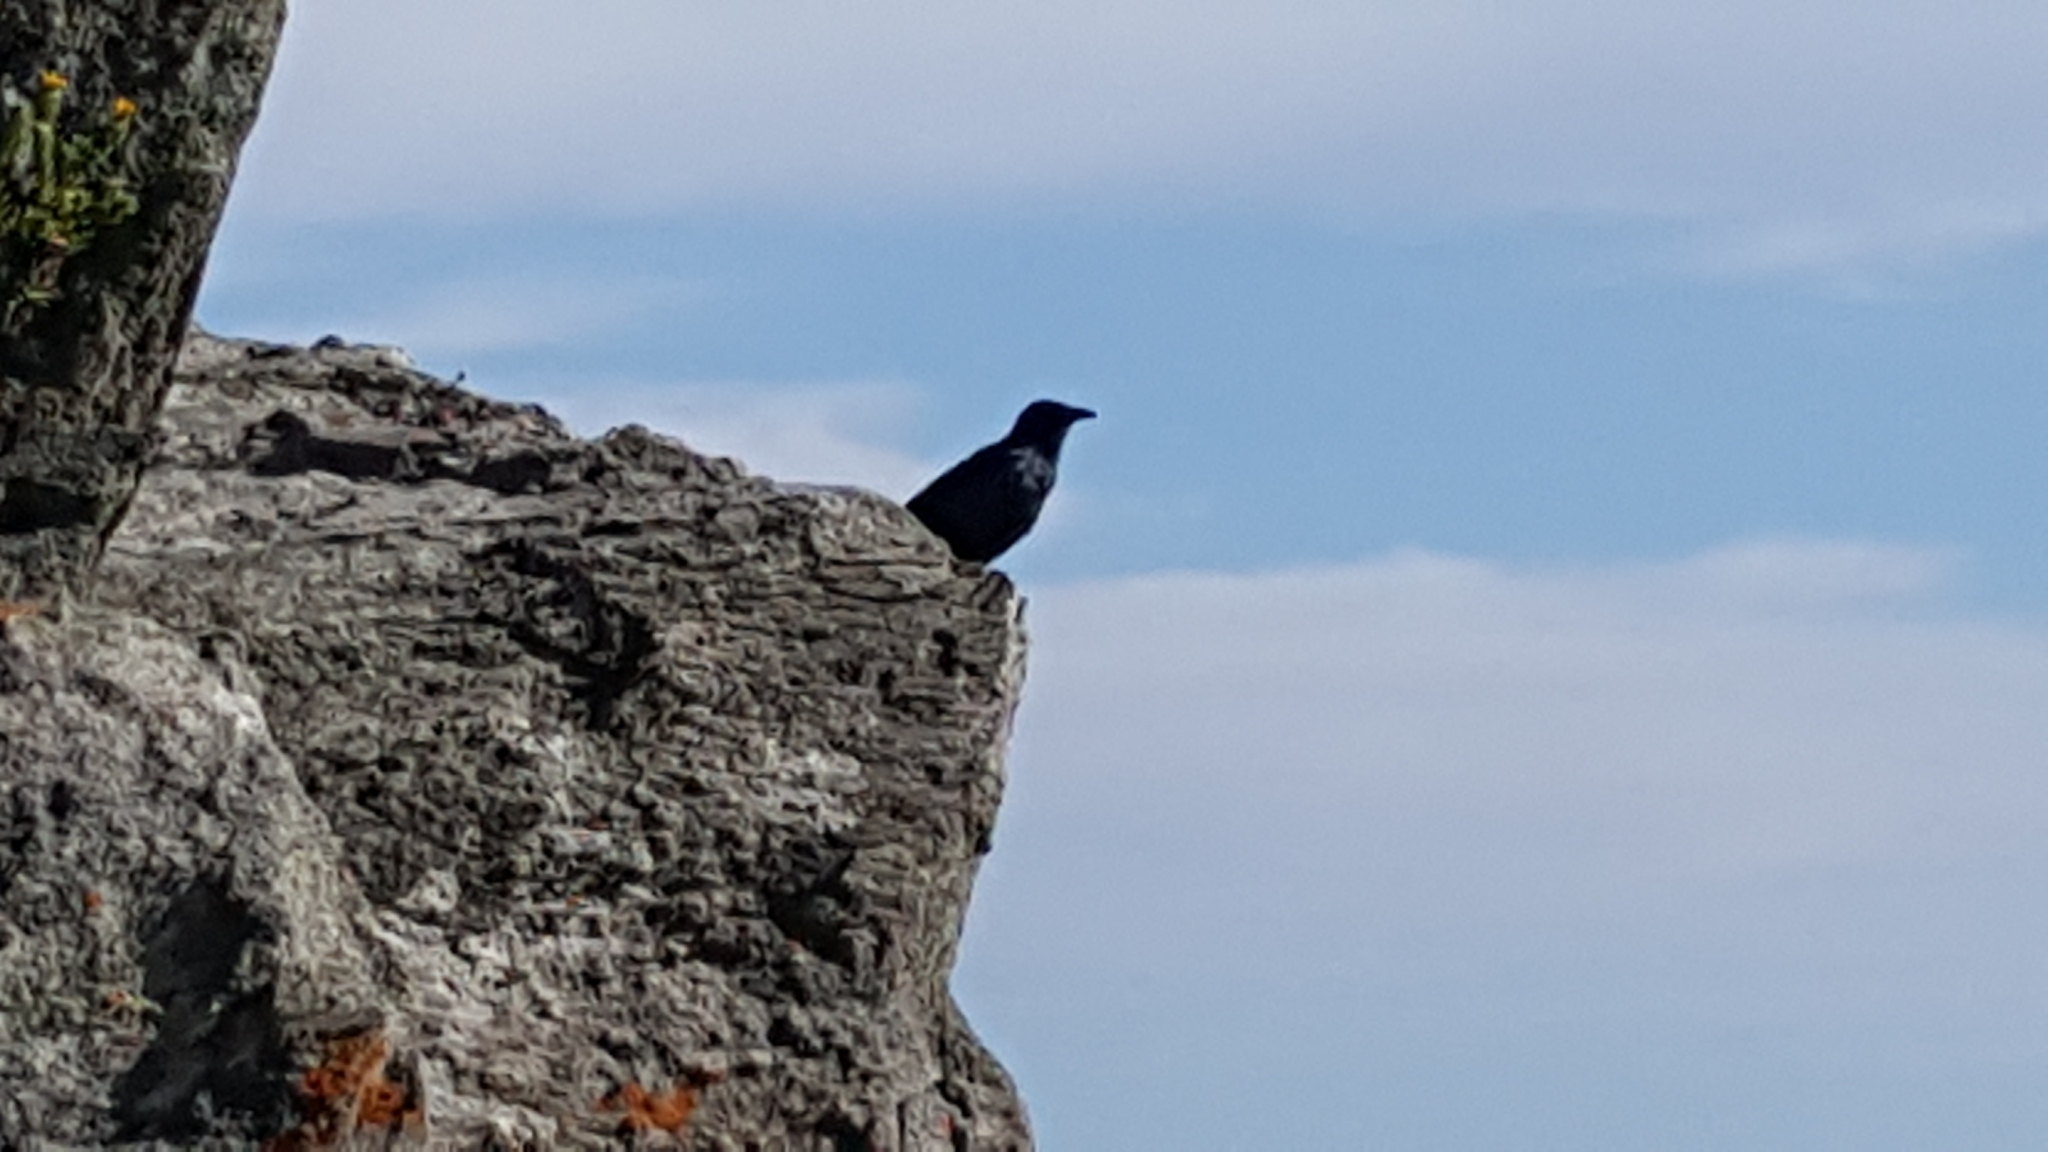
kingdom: Animalia
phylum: Chordata
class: Aves
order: Passeriformes
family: Sturnidae
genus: Onychognathus
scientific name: Onychognathus morio
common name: Red-winged starling
